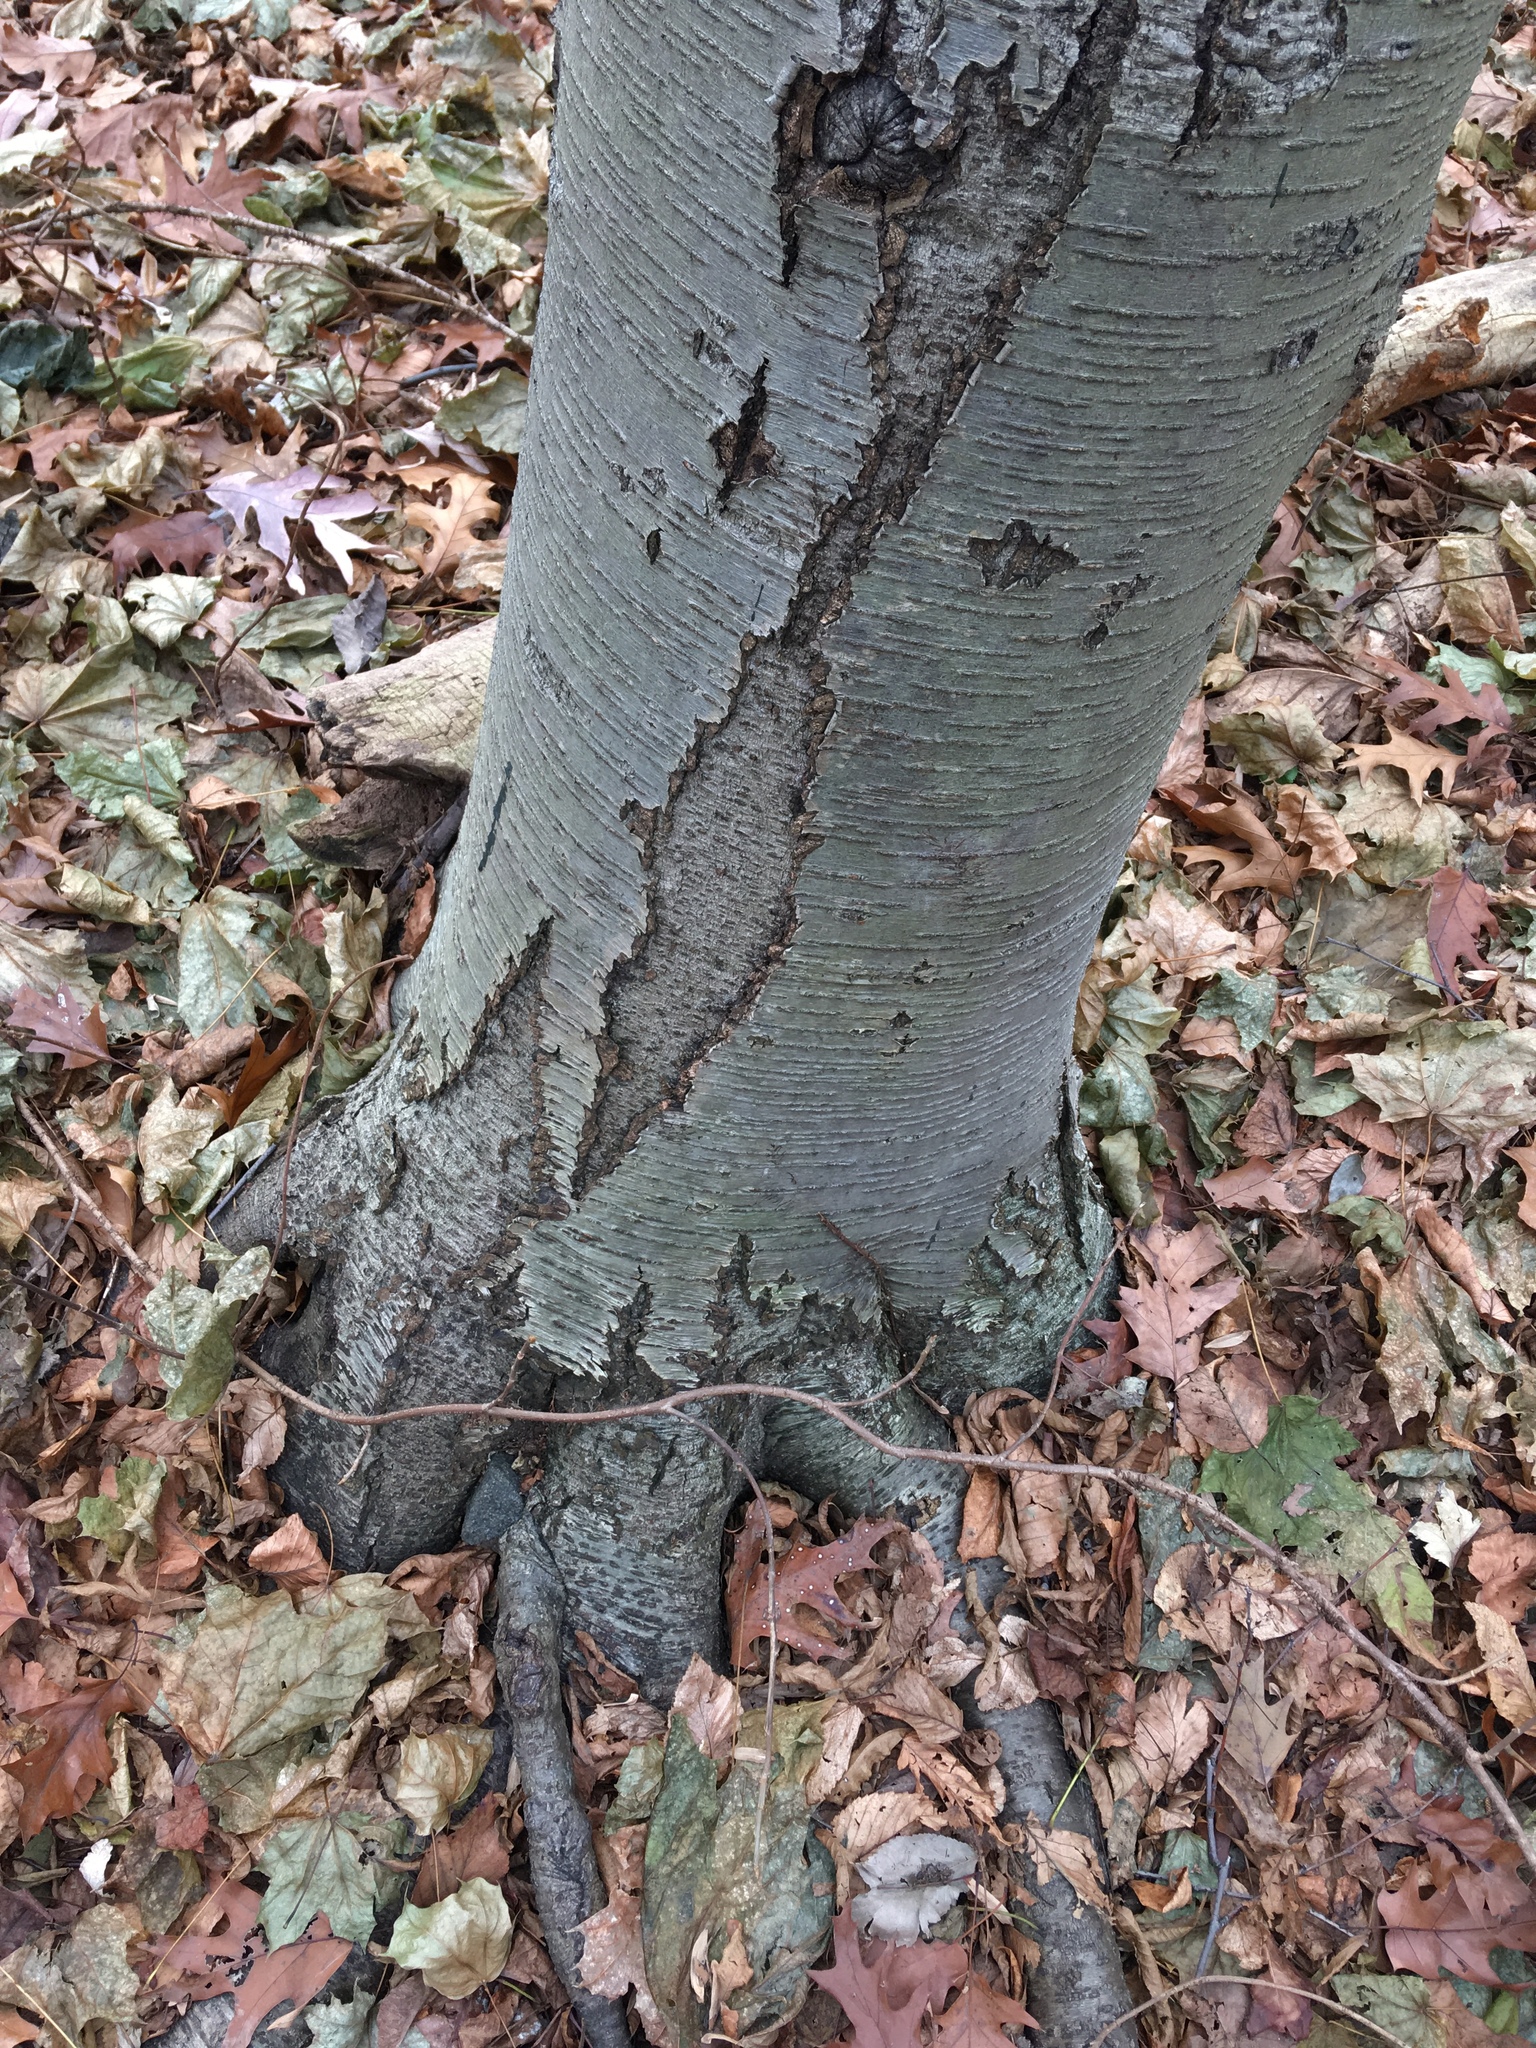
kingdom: Plantae
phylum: Tracheophyta
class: Magnoliopsida
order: Fagales
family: Betulaceae
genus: Betula
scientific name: Betula lenta
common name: Black birch
